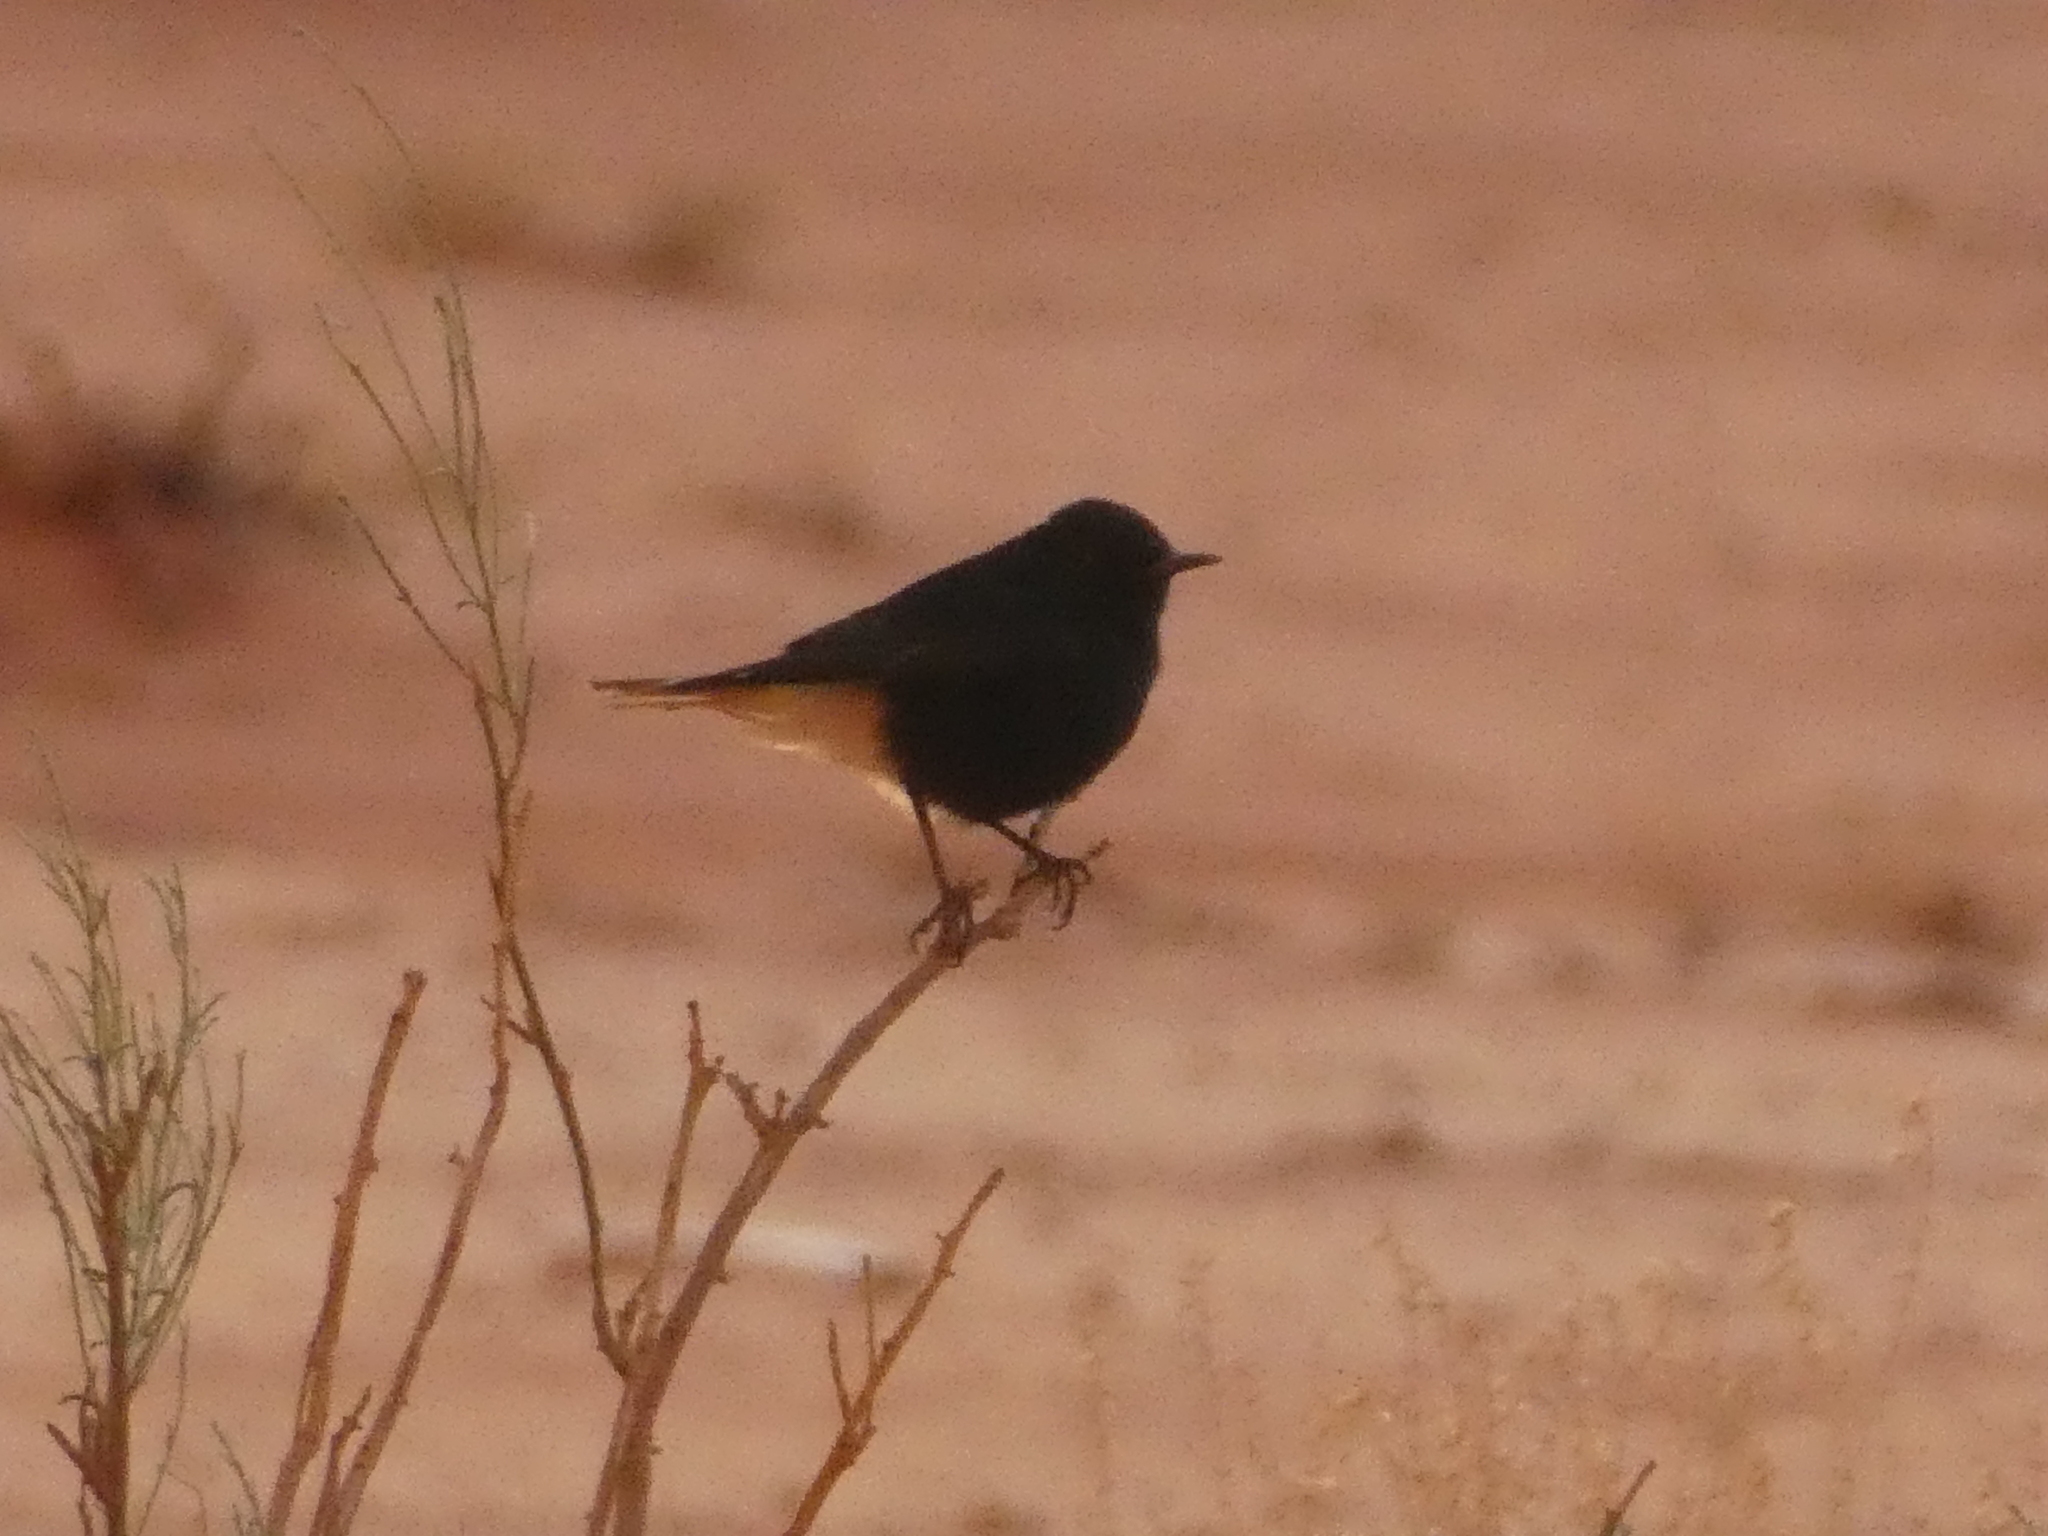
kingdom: Animalia
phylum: Chordata
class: Aves
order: Passeriformes
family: Muscicapidae
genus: Oenanthe
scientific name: Oenanthe leucopyga
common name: White-crowned wheatear
